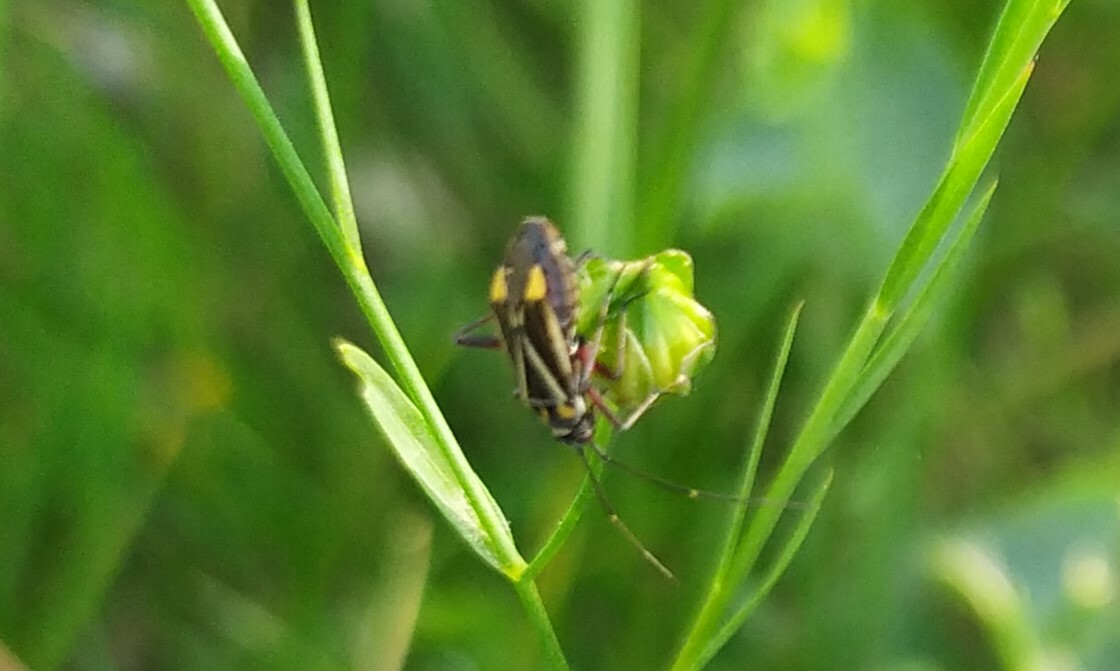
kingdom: Animalia
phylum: Arthropoda
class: Insecta
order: Hemiptera
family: Miridae
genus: Hadrodemus
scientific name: Hadrodemus m-flavum
